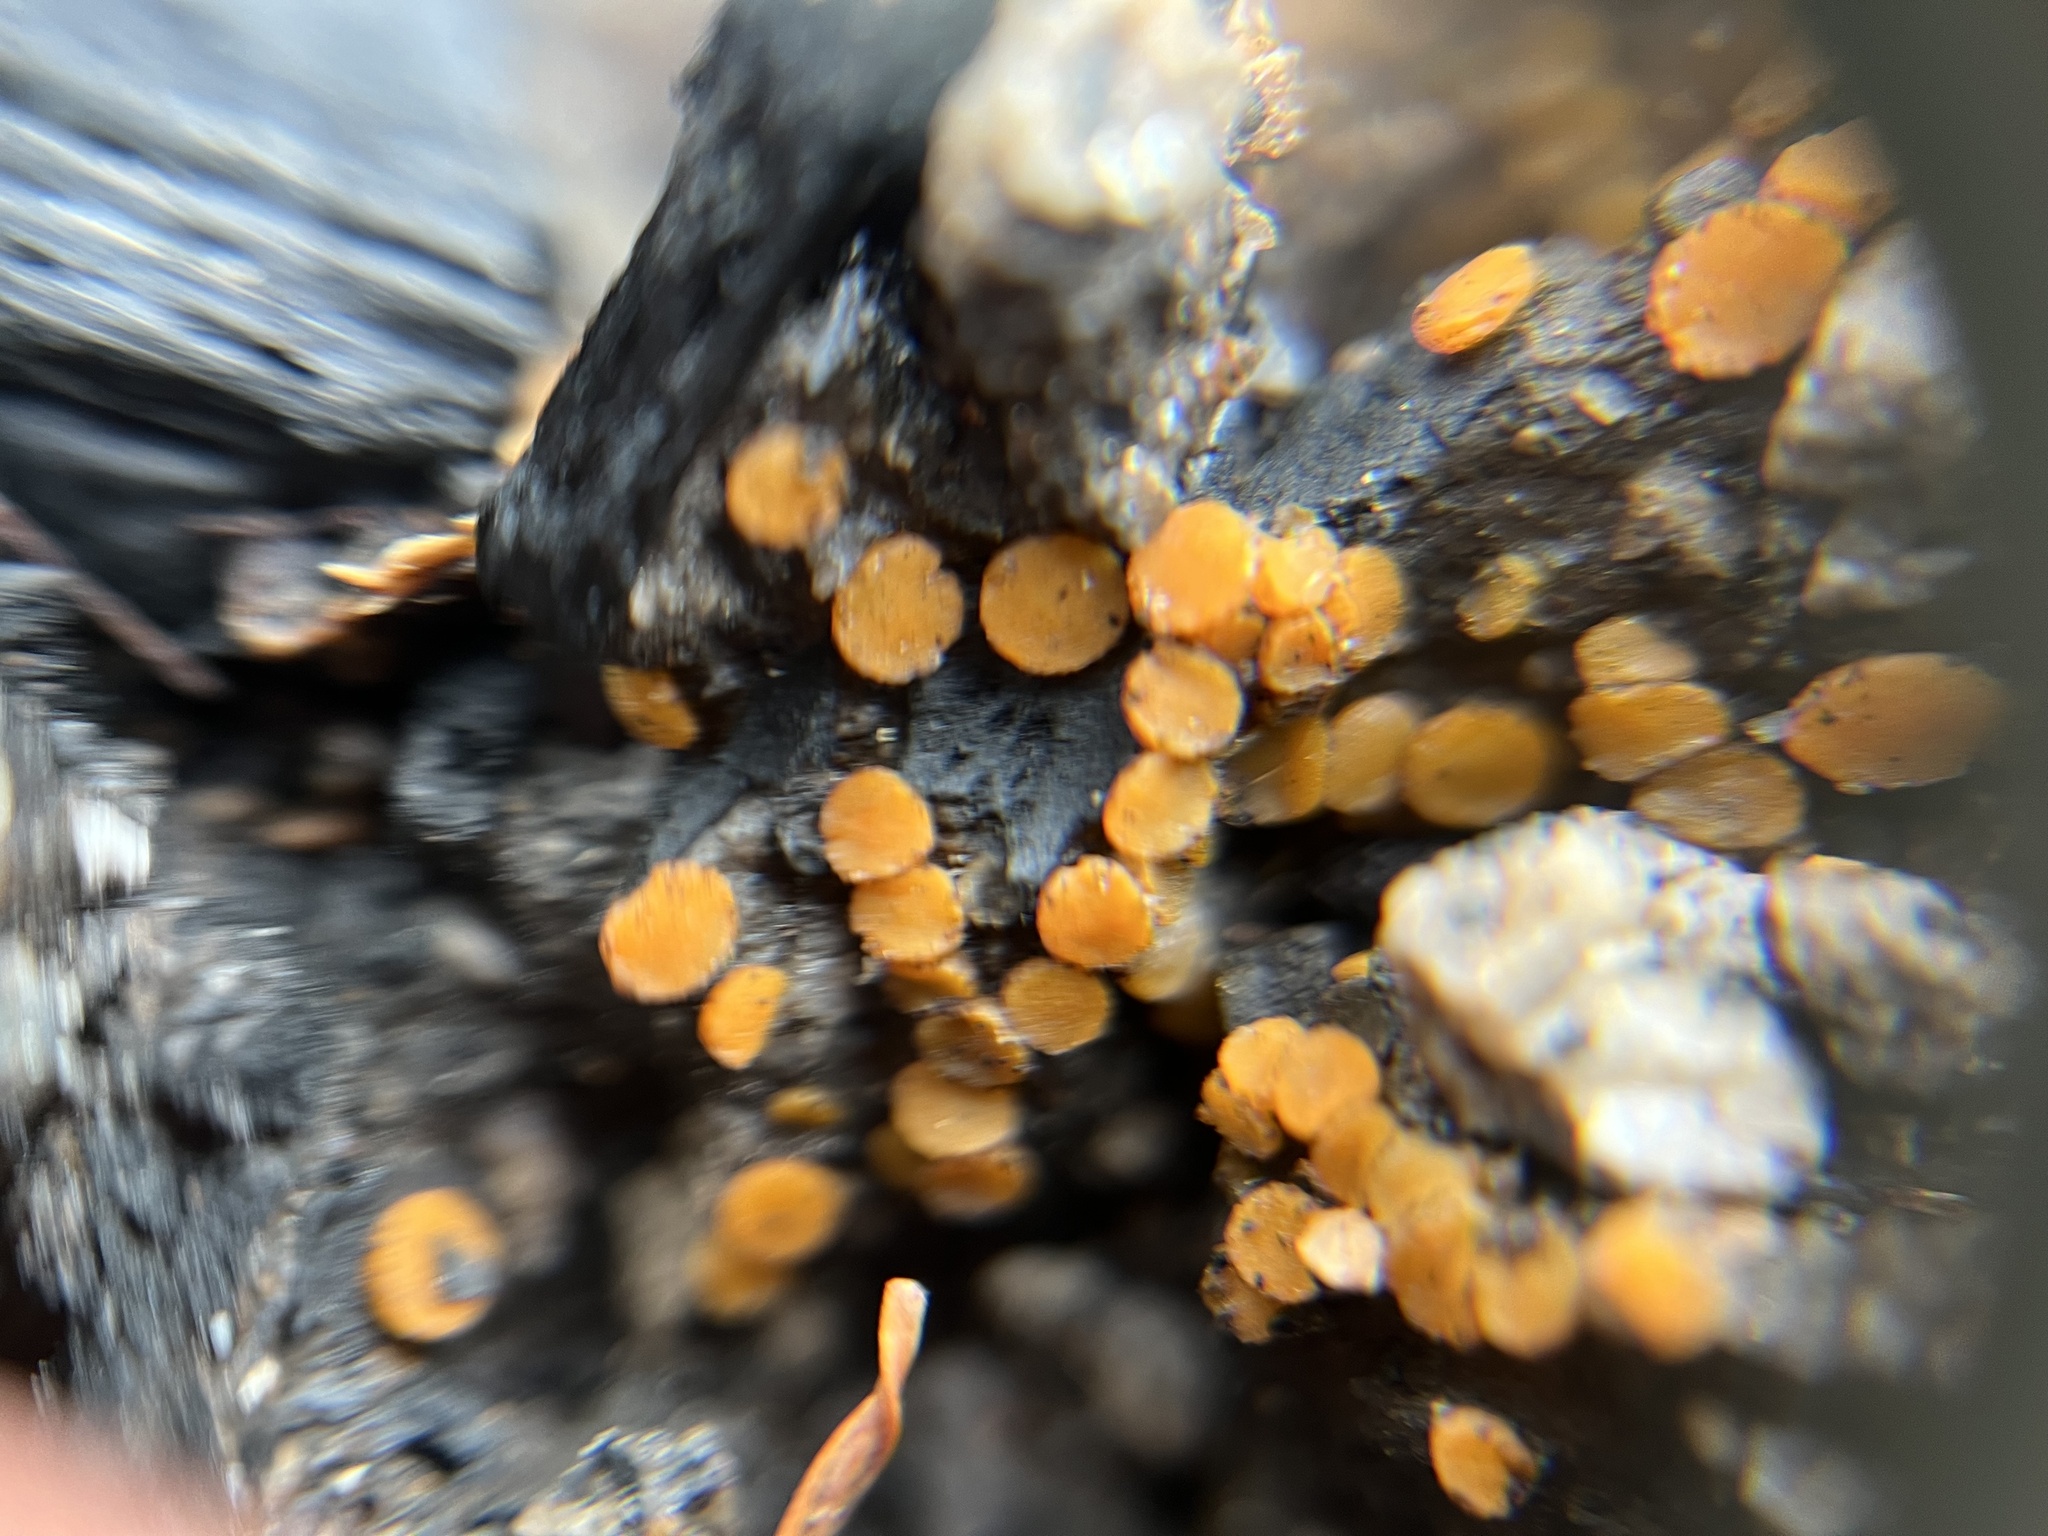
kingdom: Fungi
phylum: Ascomycota
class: Pezizomycetes
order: Pezizales
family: Pyronemataceae
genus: Anthracobia
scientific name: Anthracobia melaloma
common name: Charcoal eyelash
